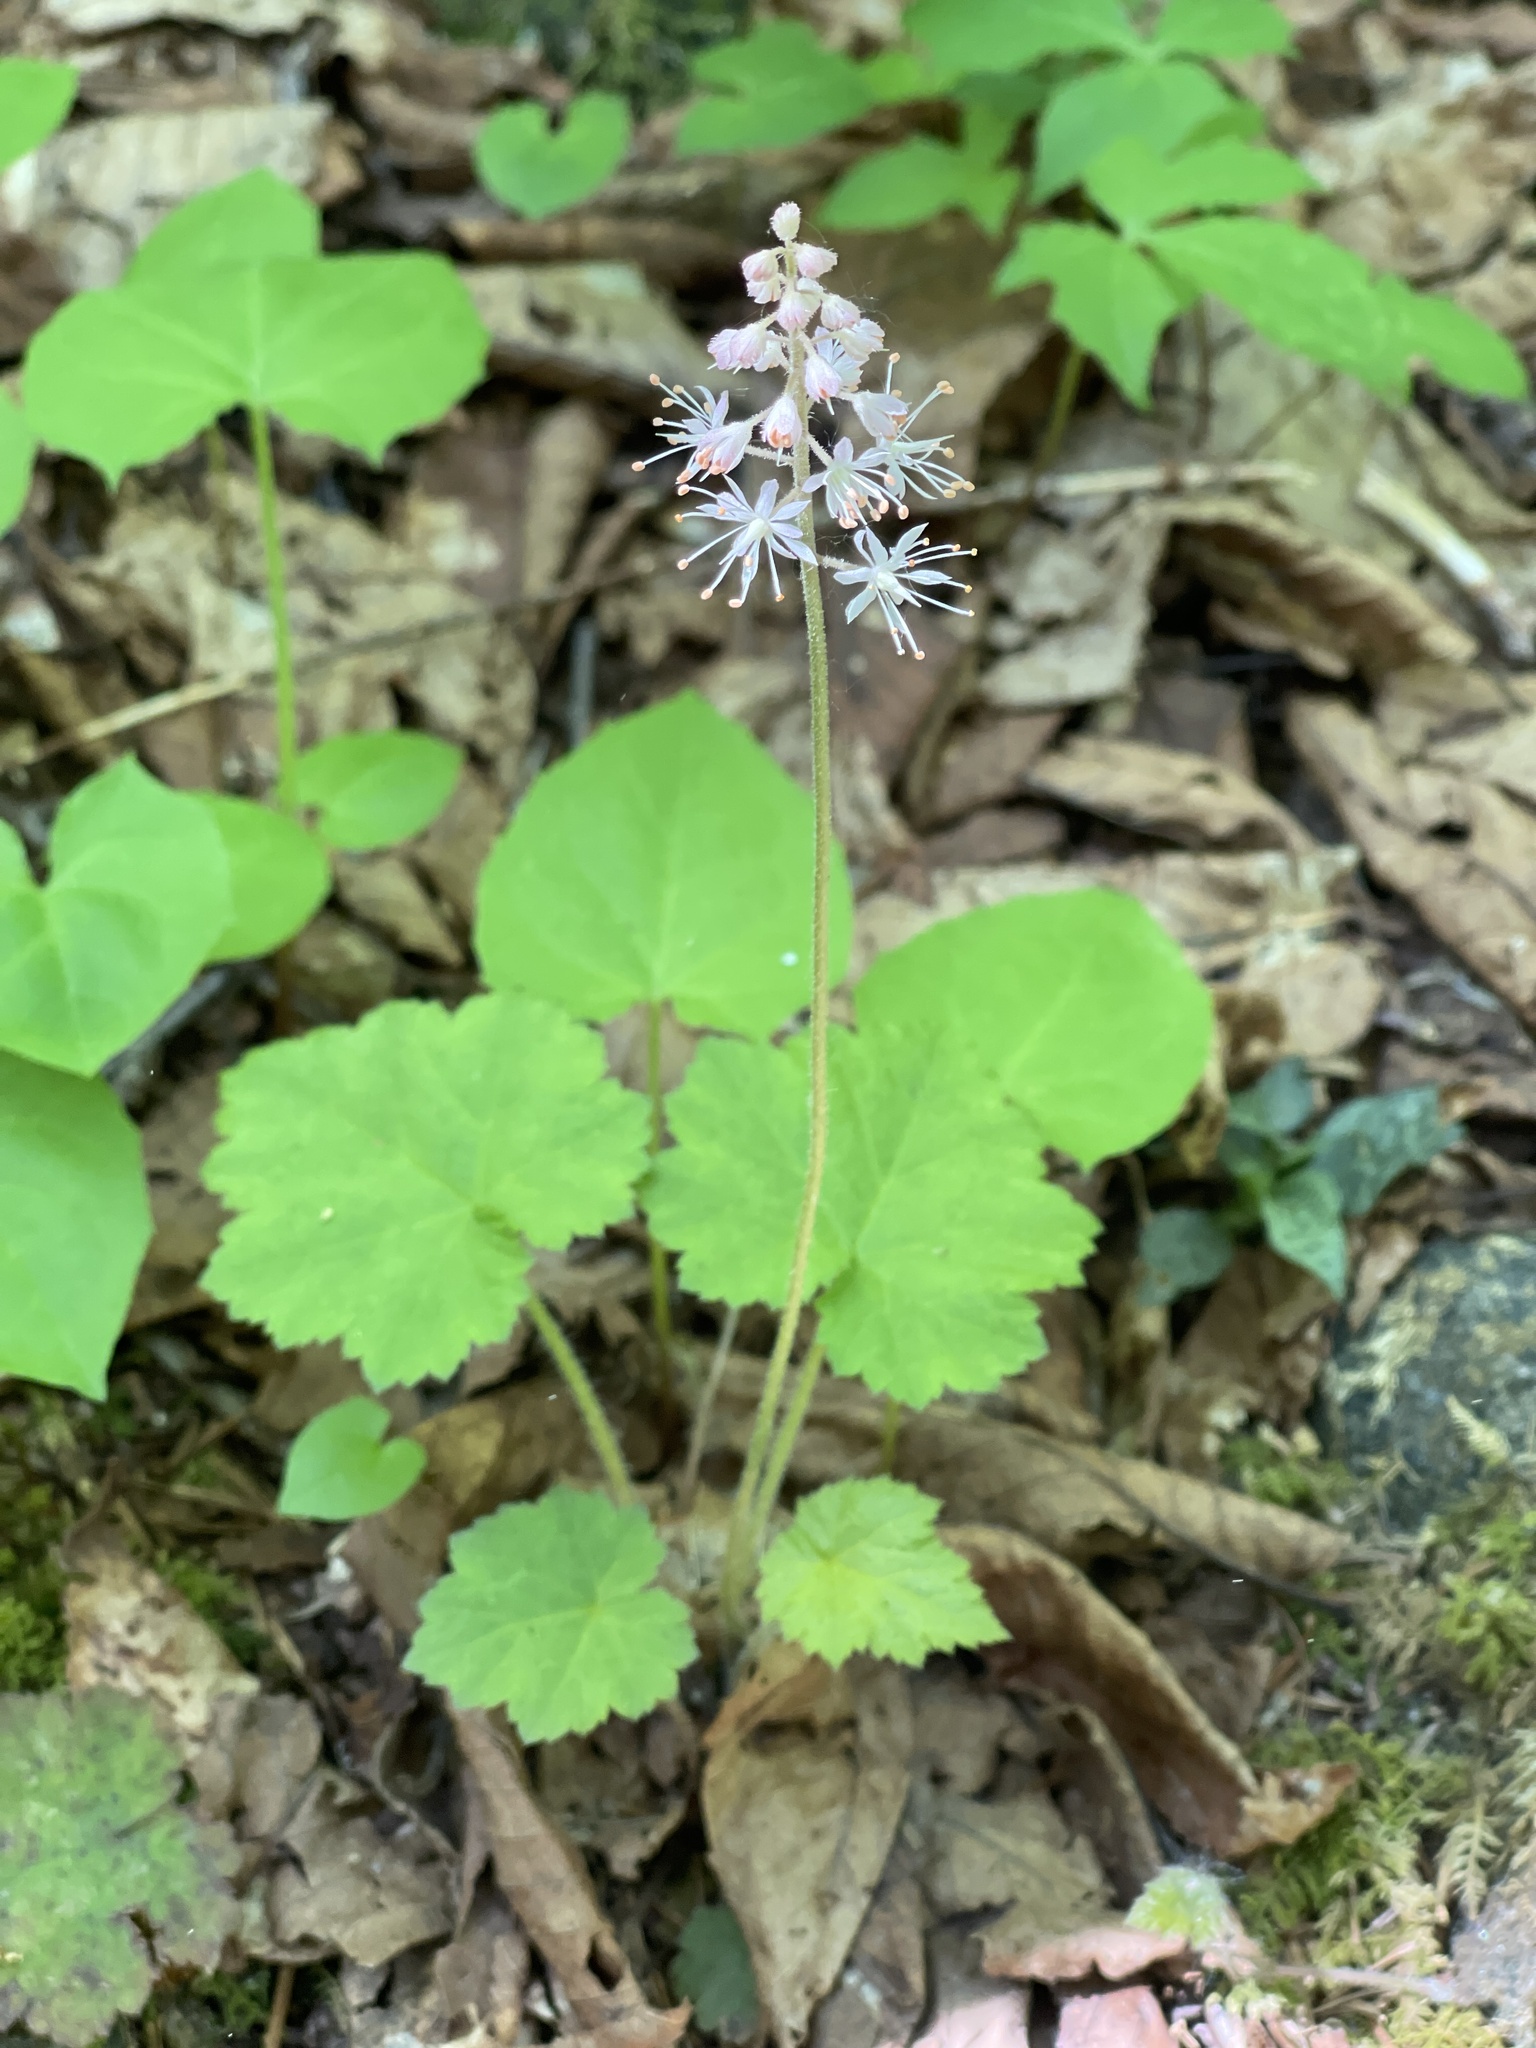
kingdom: Plantae
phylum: Tracheophyta
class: Magnoliopsida
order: Saxifragales
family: Saxifragaceae
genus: Tiarella
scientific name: Tiarella stolonifera
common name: Stoloniferous foamflower
